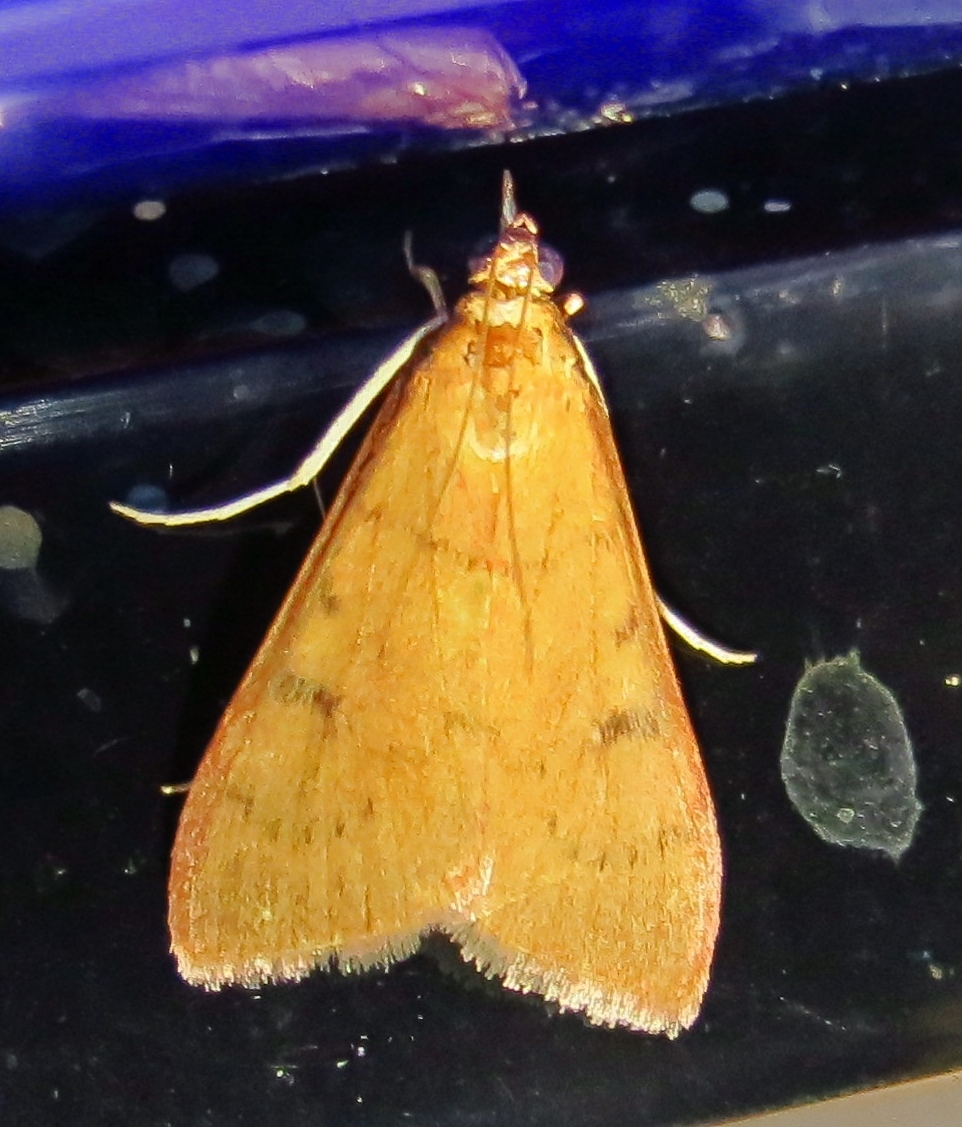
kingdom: Animalia
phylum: Arthropoda
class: Insecta
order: Lepidoptera
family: Crambidae
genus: Uresiphita
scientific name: Uresiphita reversalis
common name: Genista broom moth
